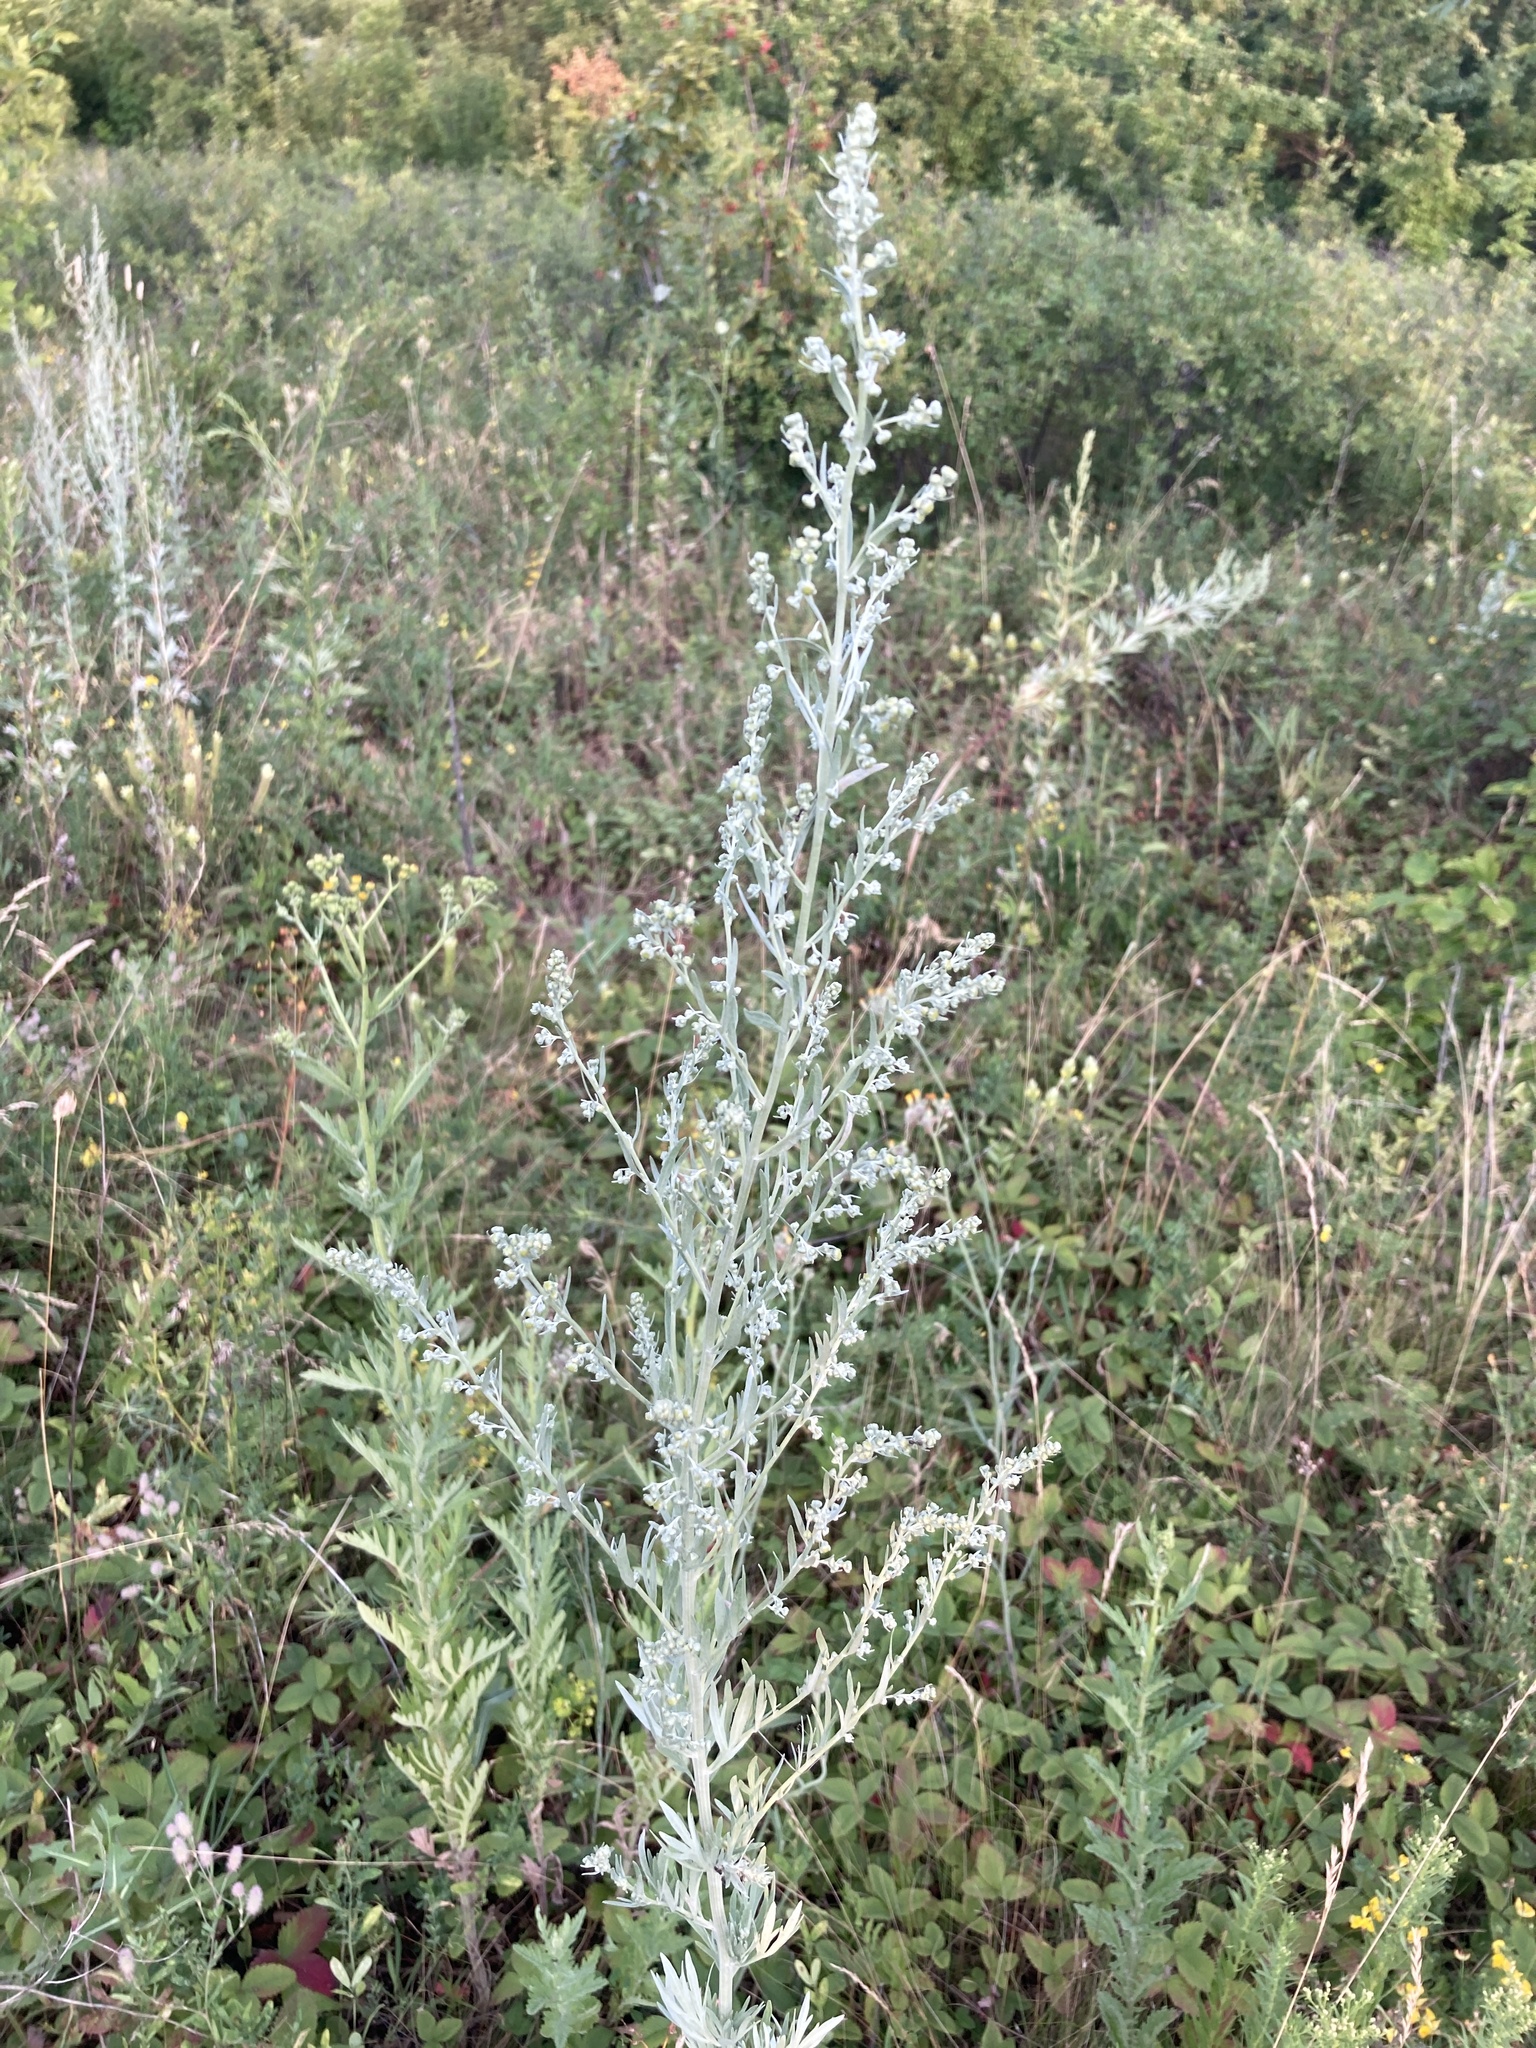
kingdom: Plantae
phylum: Tracheophyta
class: Magnoliopsida
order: Asterales
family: Asteraceae
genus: Artemisia
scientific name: Artemisia absinthium
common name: Wormwood
